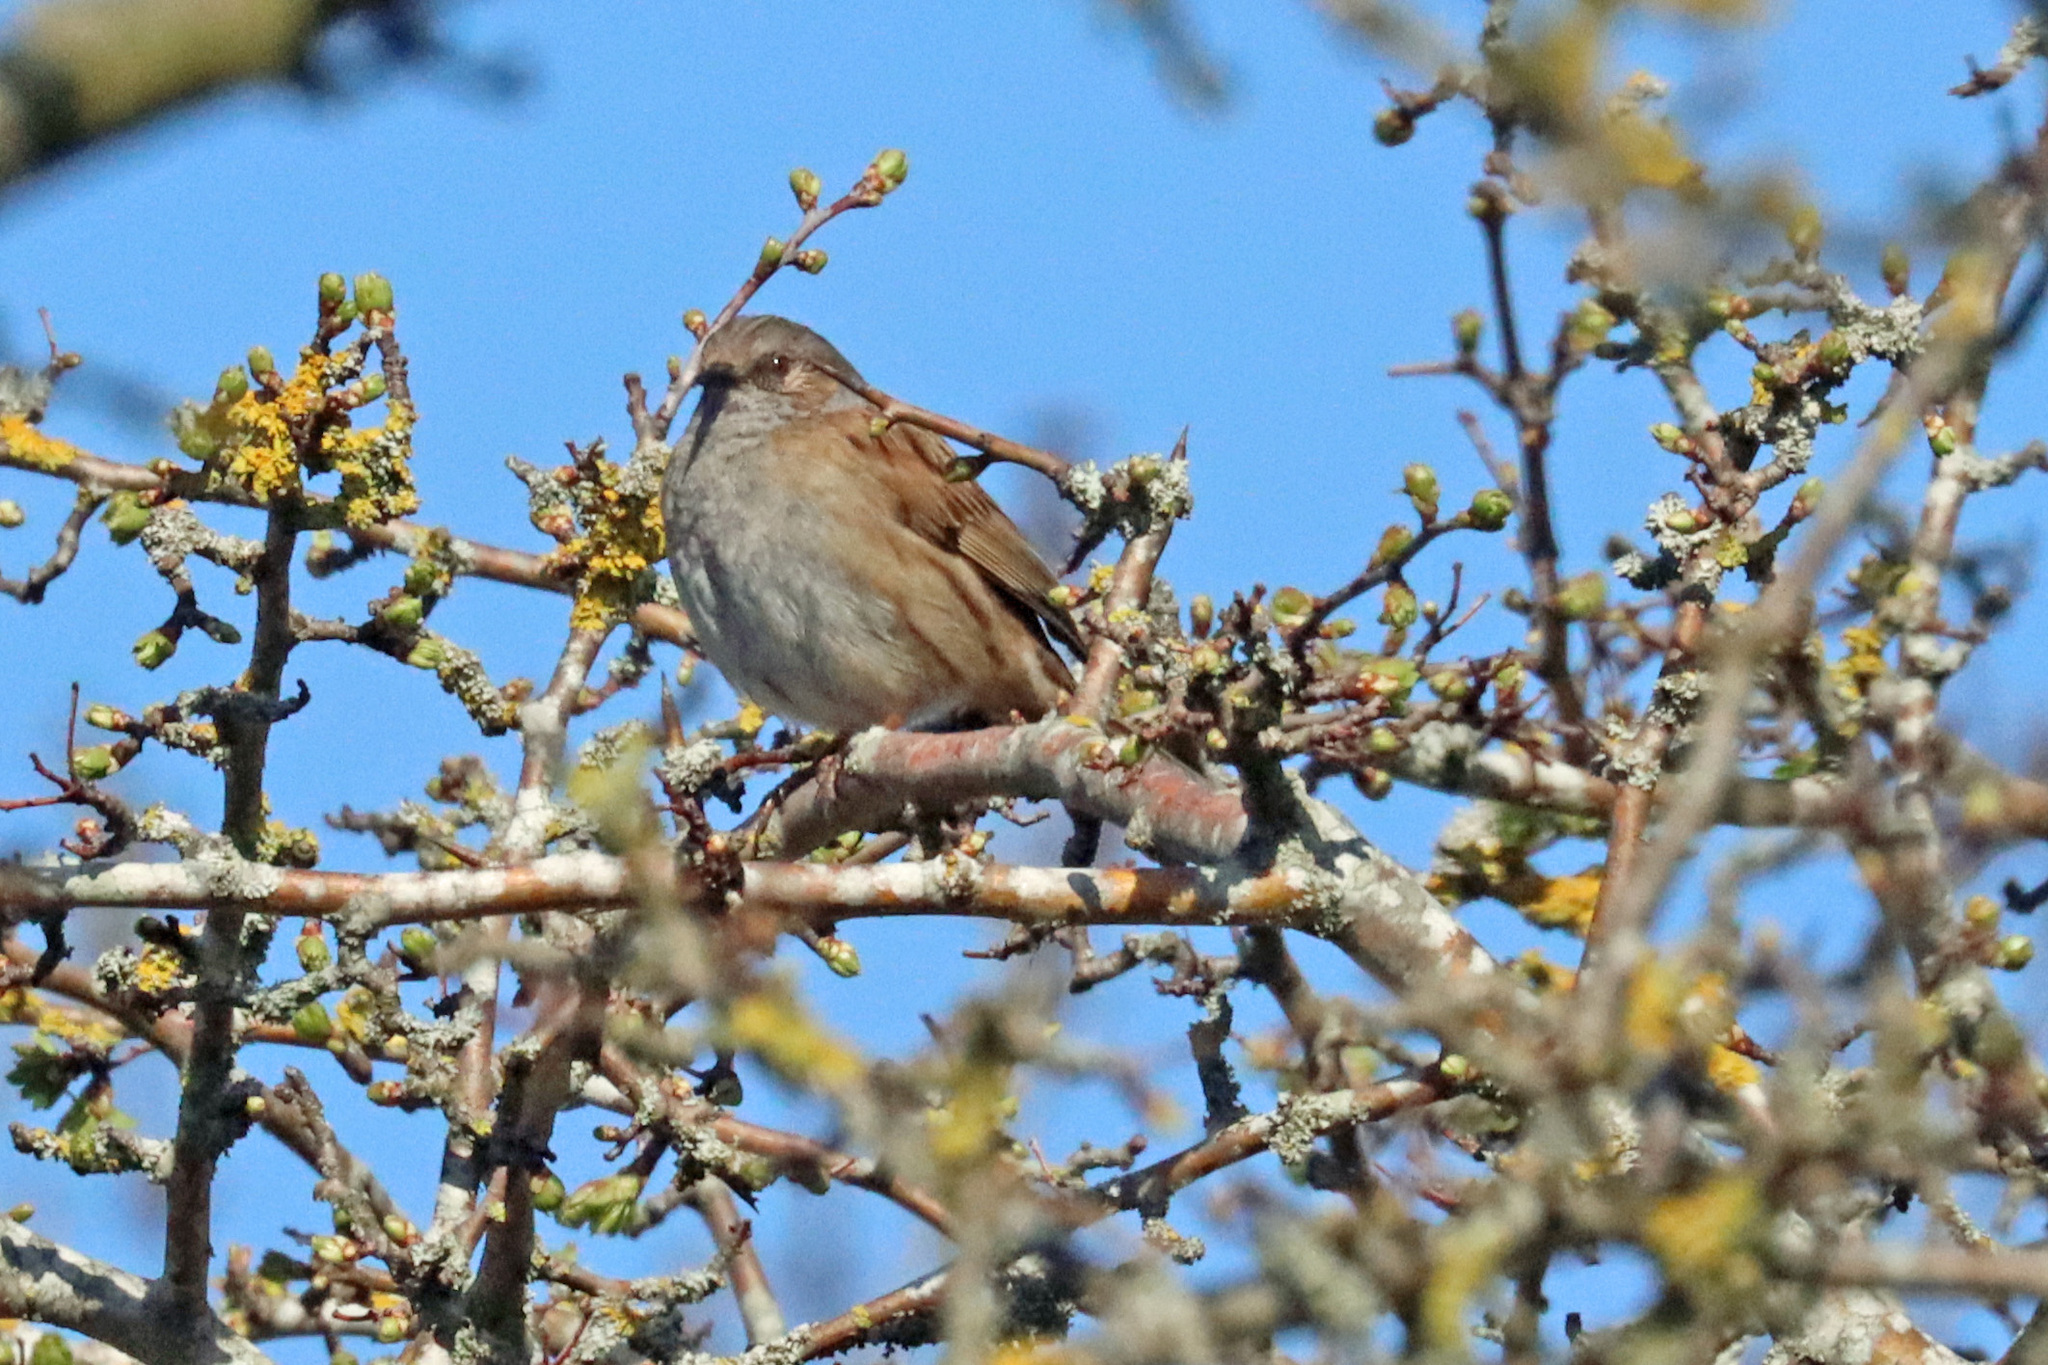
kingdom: Animalia
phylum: Chordata
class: Aves
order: Passeriformes
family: Prunellidae
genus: Prunella
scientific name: Prunella modularis
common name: Dunnock
